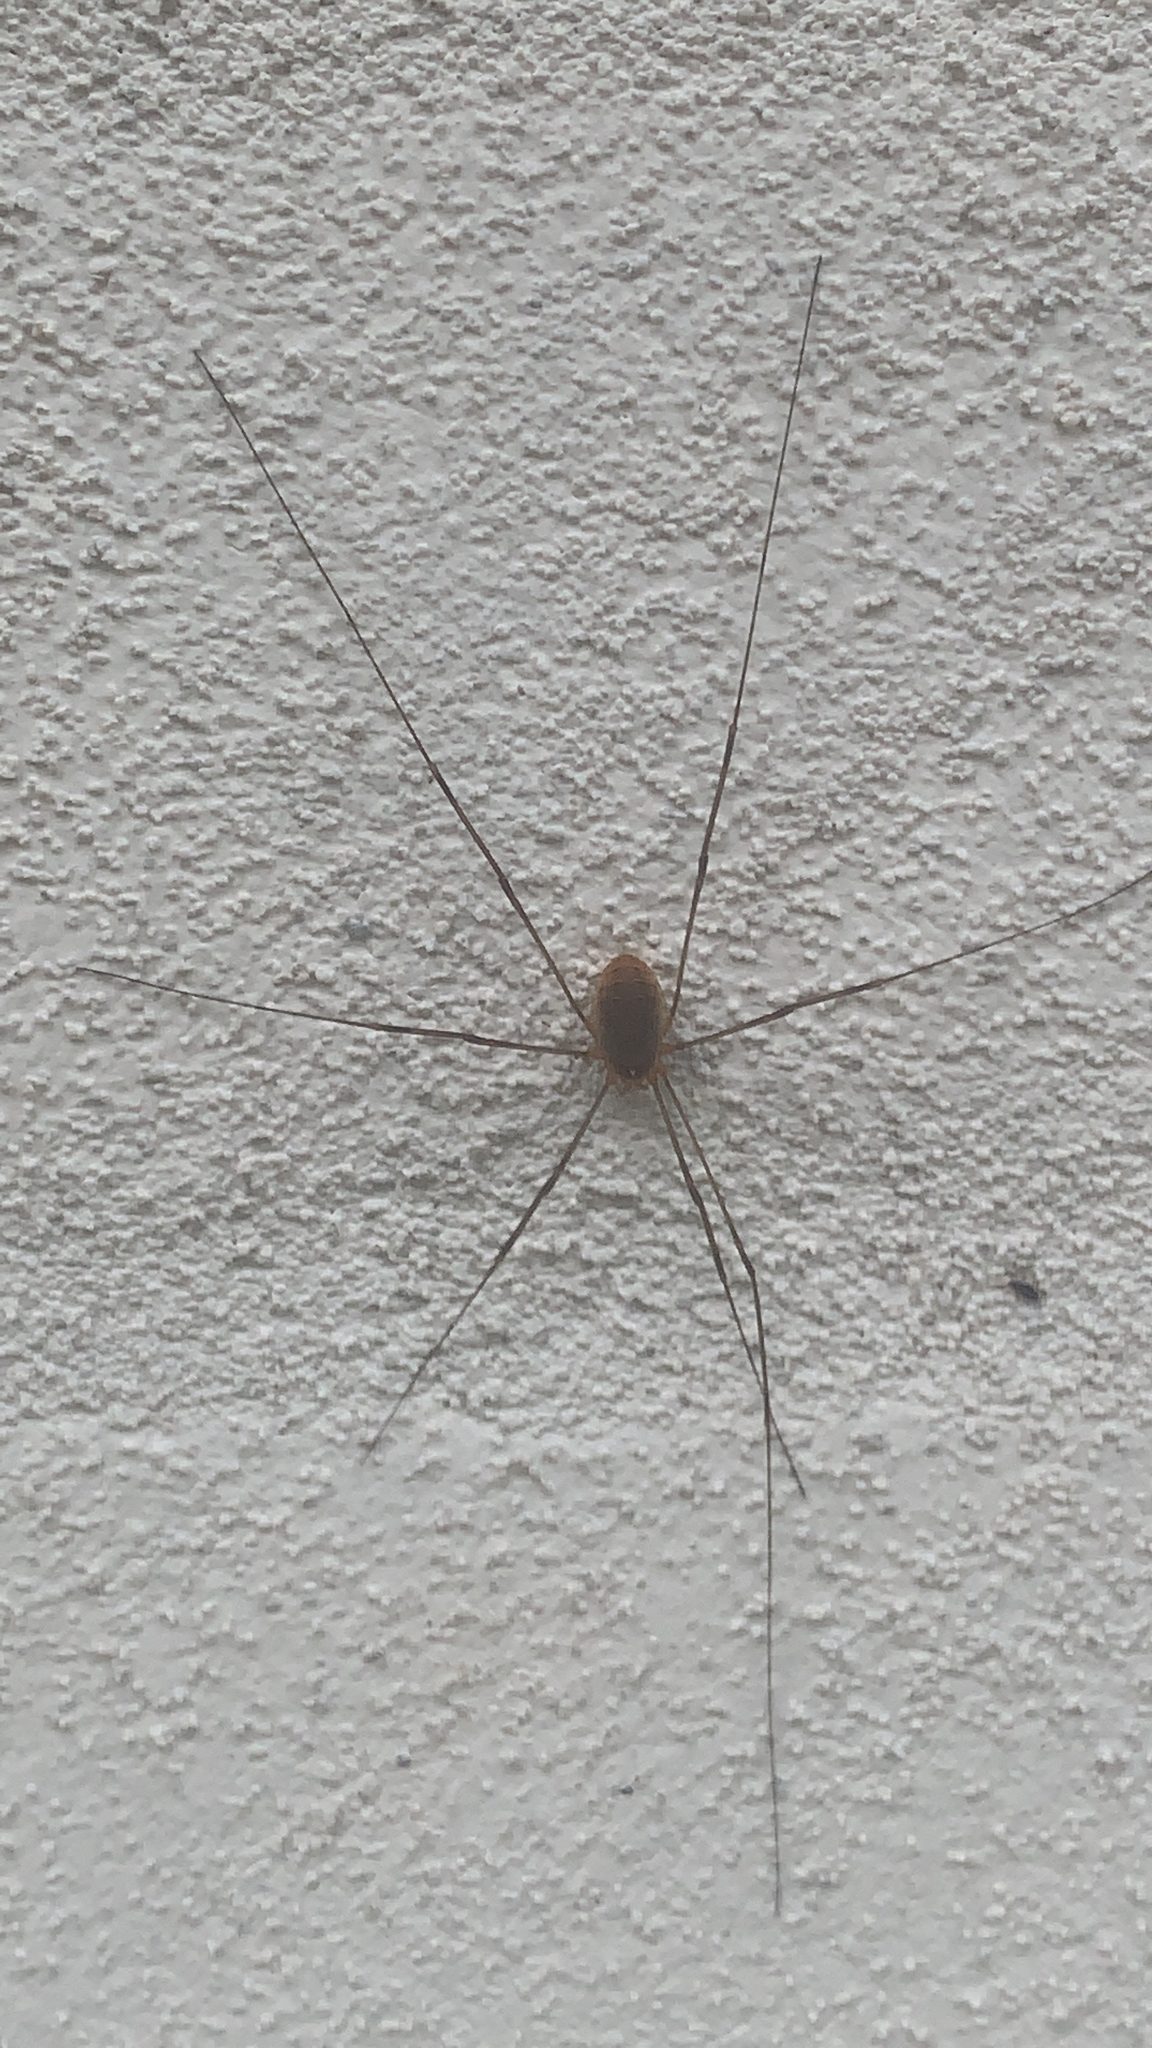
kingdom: Animalia
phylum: Arthropoda
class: Arachnida
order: Opiliones
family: Phalangiidae
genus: Opilio
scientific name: Opilio canestrinii
